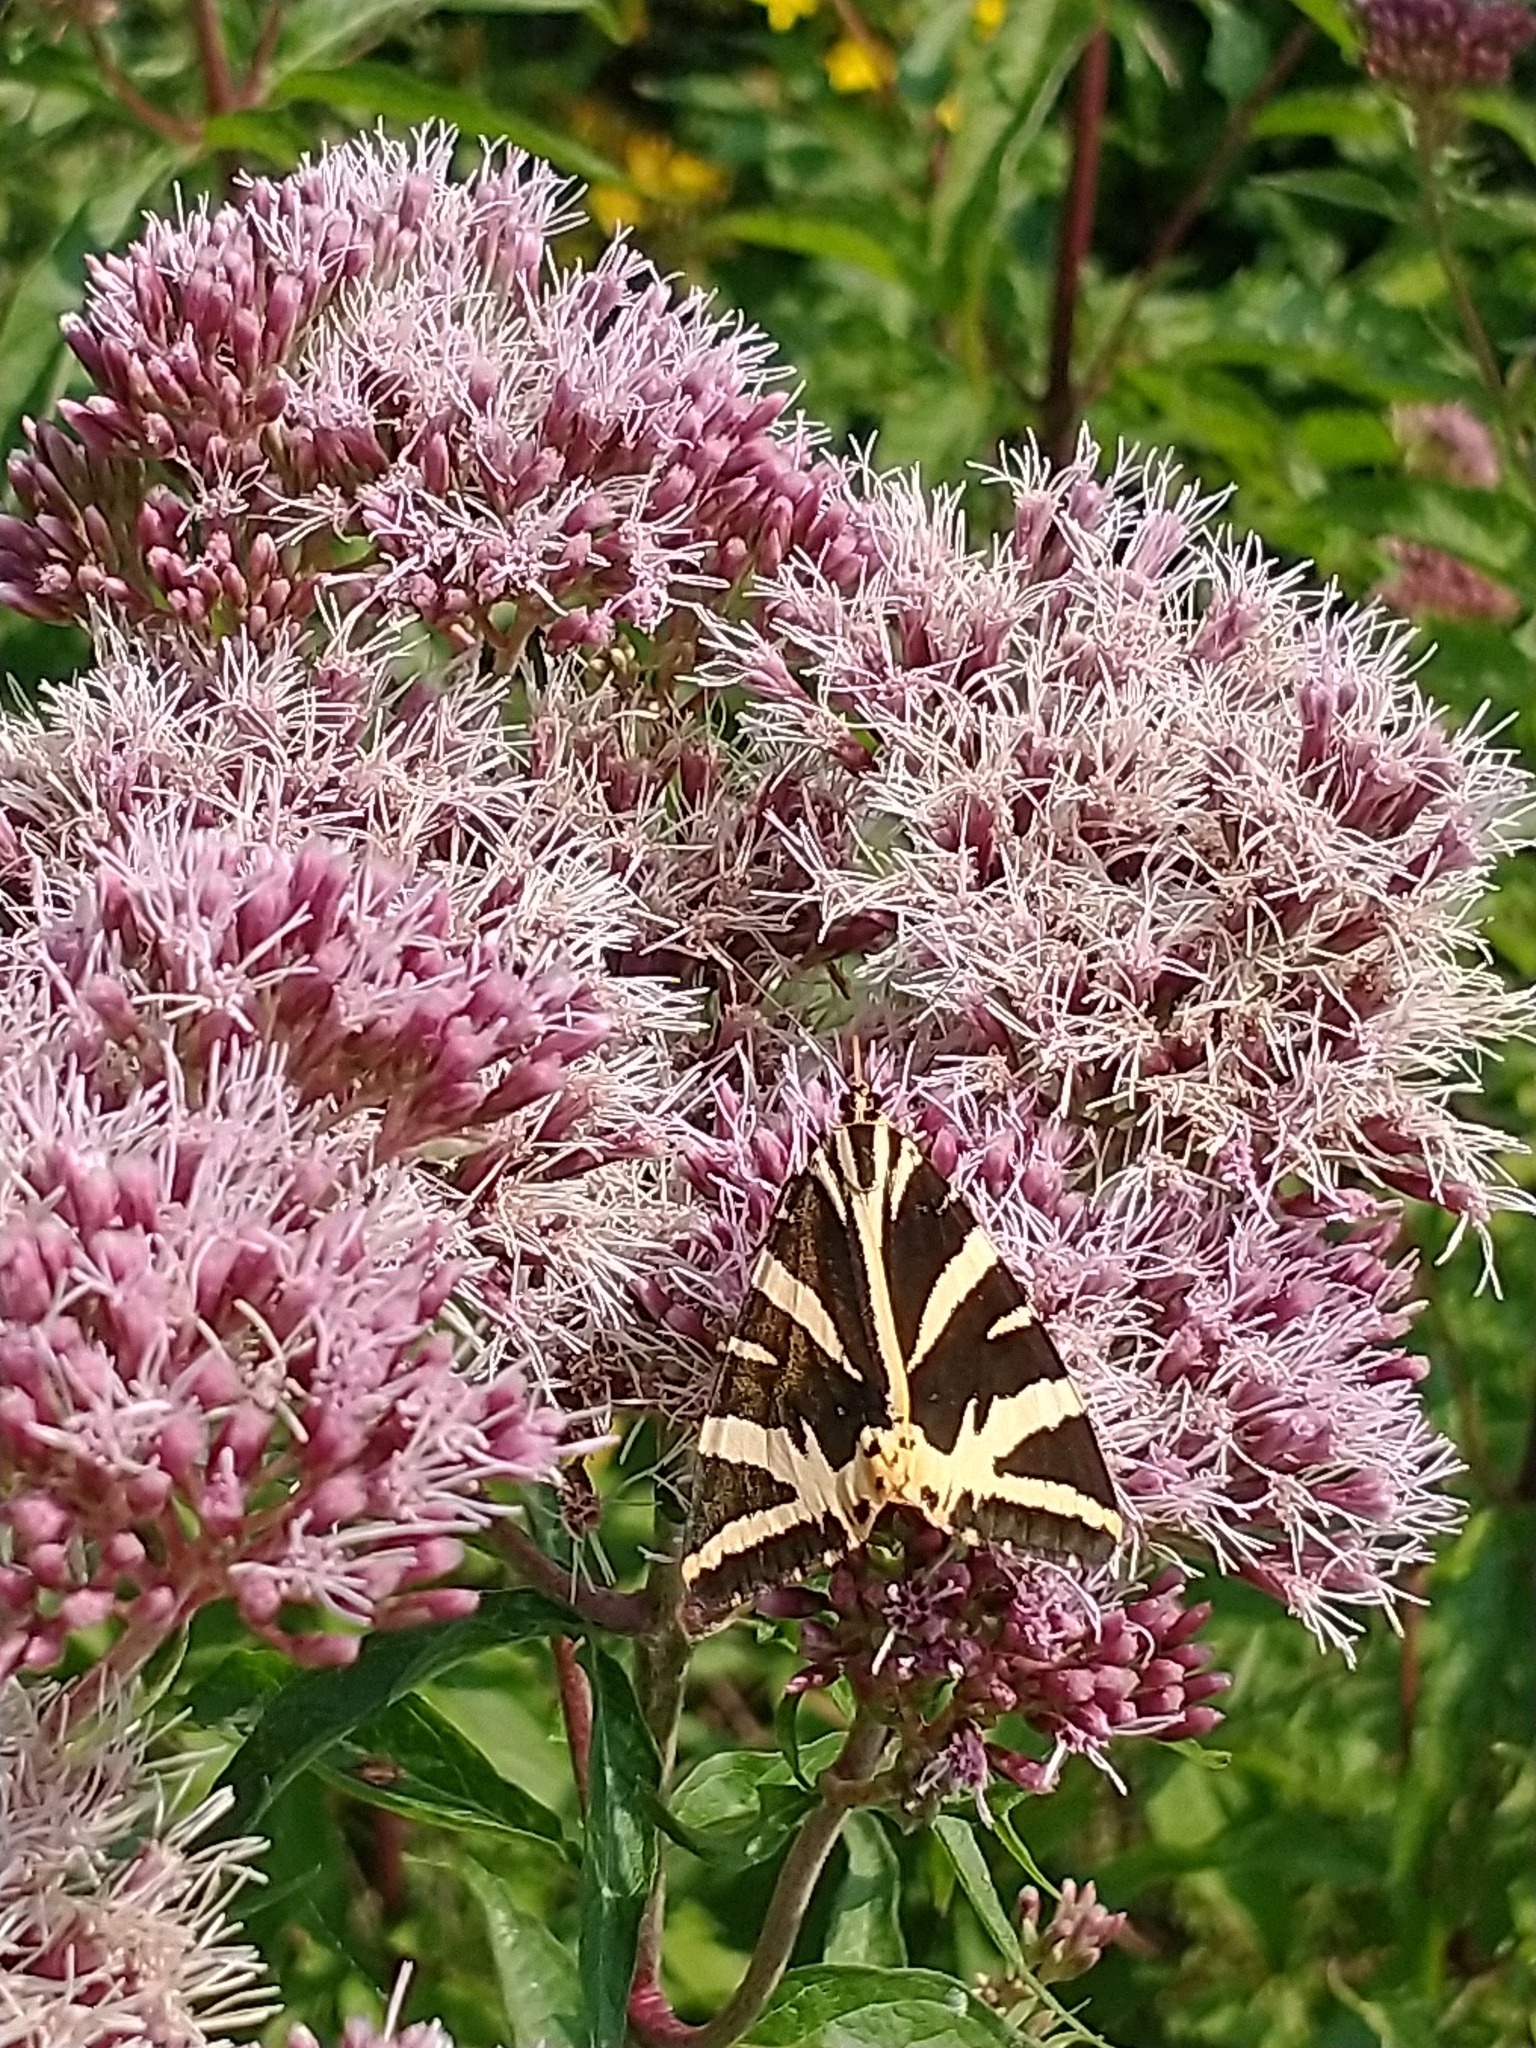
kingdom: Animalia
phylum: Arthropoda
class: Insecta
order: Lepidoptera
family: Erebidae
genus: Euplagia
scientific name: Euplagia quadripunctaria
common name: Jersey tiger
